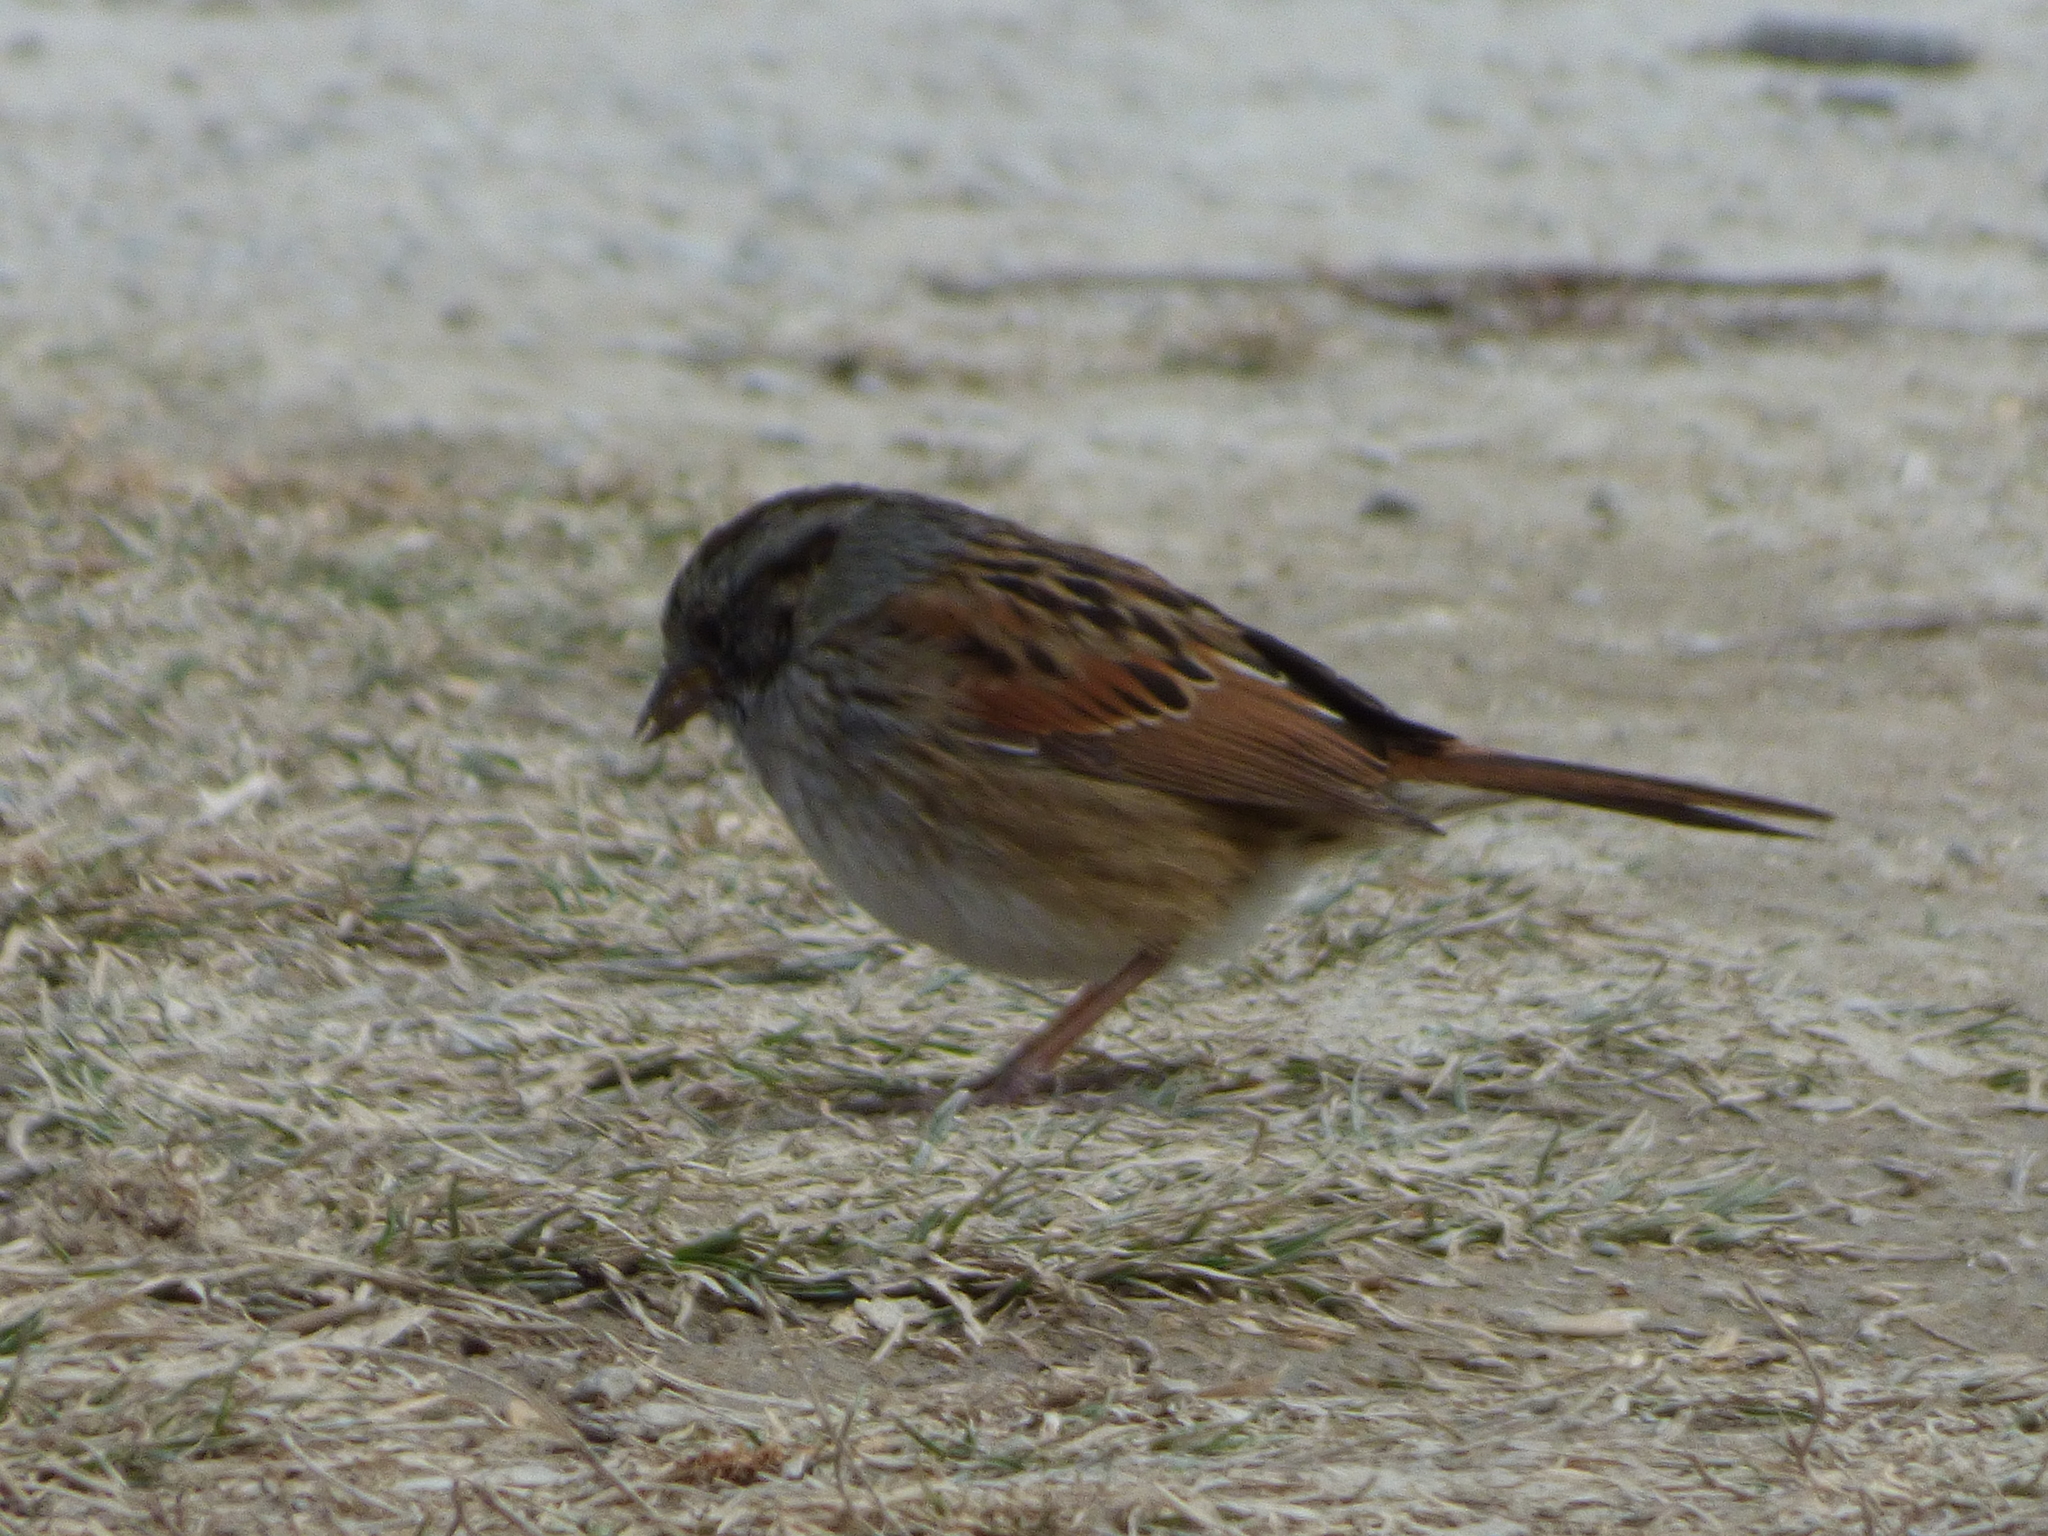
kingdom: Animalia
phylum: Chordata
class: Aves
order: Passeriformes
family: Passerellidae
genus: Melospiza
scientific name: Melospiza georgiana
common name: Swamp sparrow
